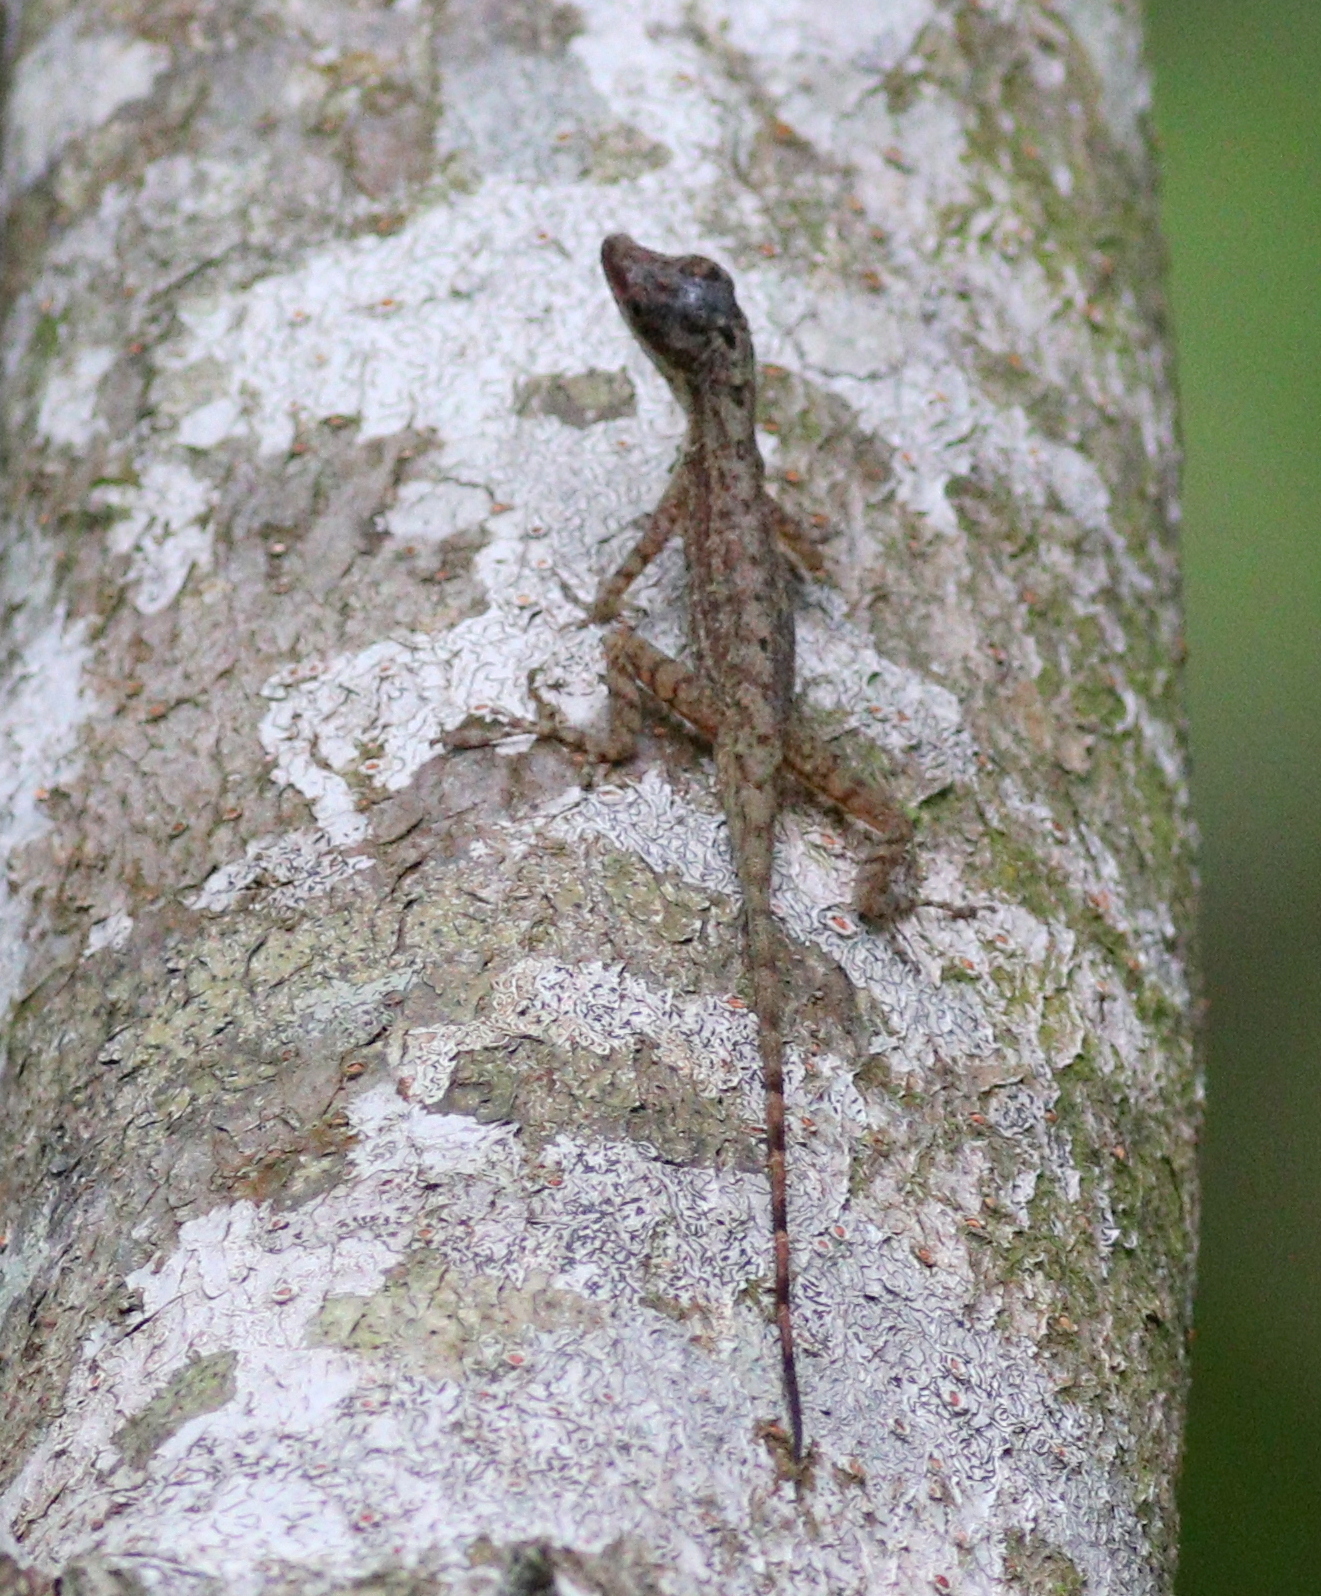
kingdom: Animalia
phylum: Chordata
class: Squamata
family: Dactyloidae
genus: Anolis
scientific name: Anolis limifrons
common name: Border anole
